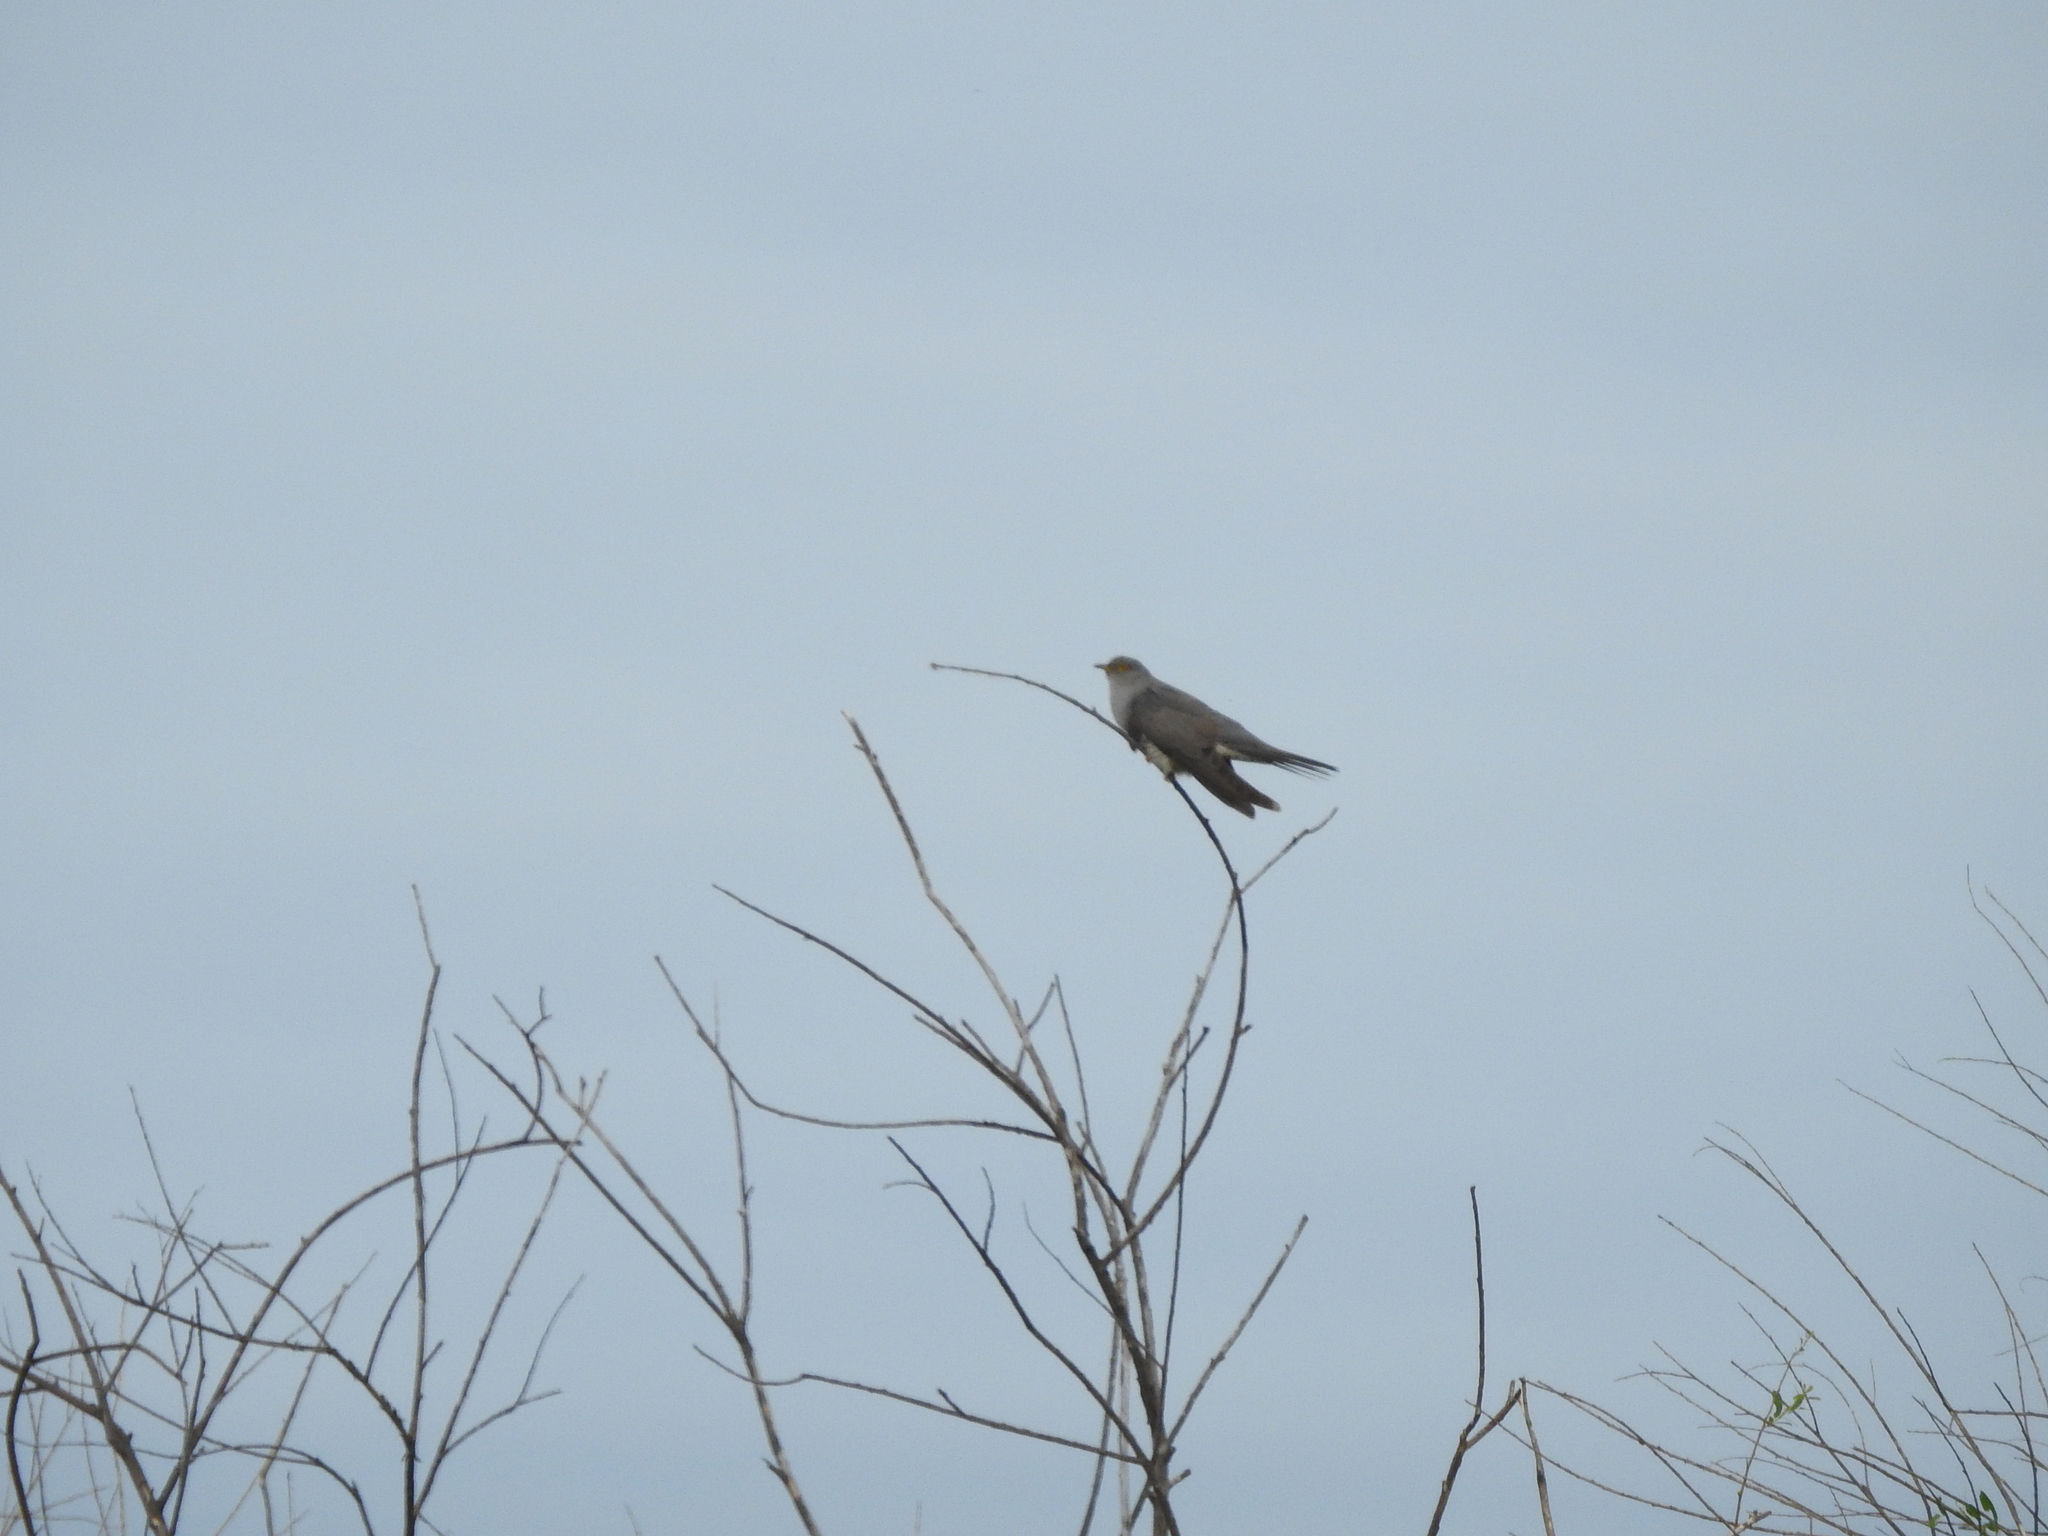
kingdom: Animalia
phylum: Chordata
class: Aves
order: Cuculiformes
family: Cuculidae
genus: Cuculus
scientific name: Cuculus canorus
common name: Common cuckoo
